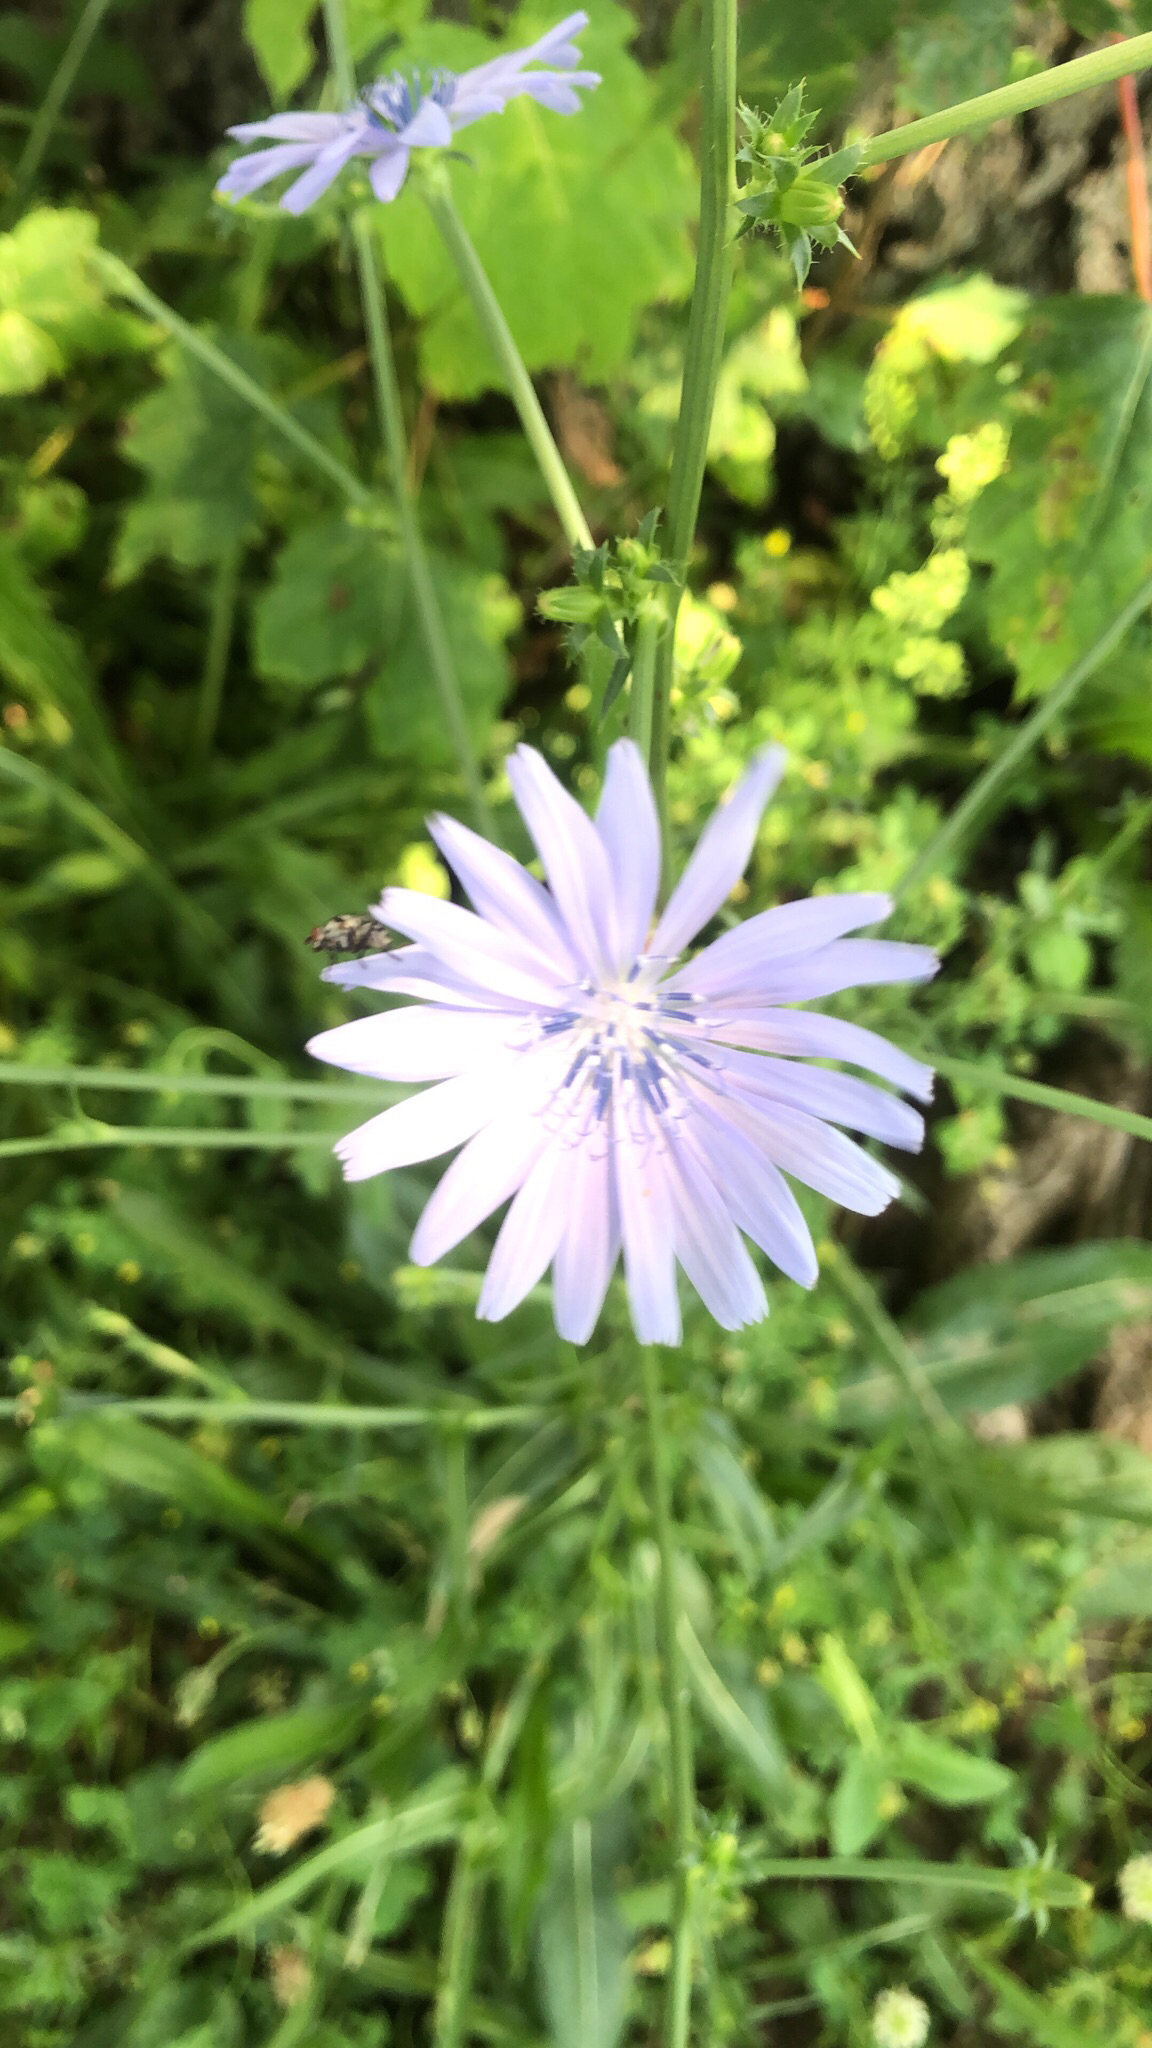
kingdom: Plantae
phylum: Tracheophyta
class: Magnoliopsida
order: Asterales
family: Asteraceae
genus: Cichorium
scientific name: Cichorium intybus
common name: Chicory
